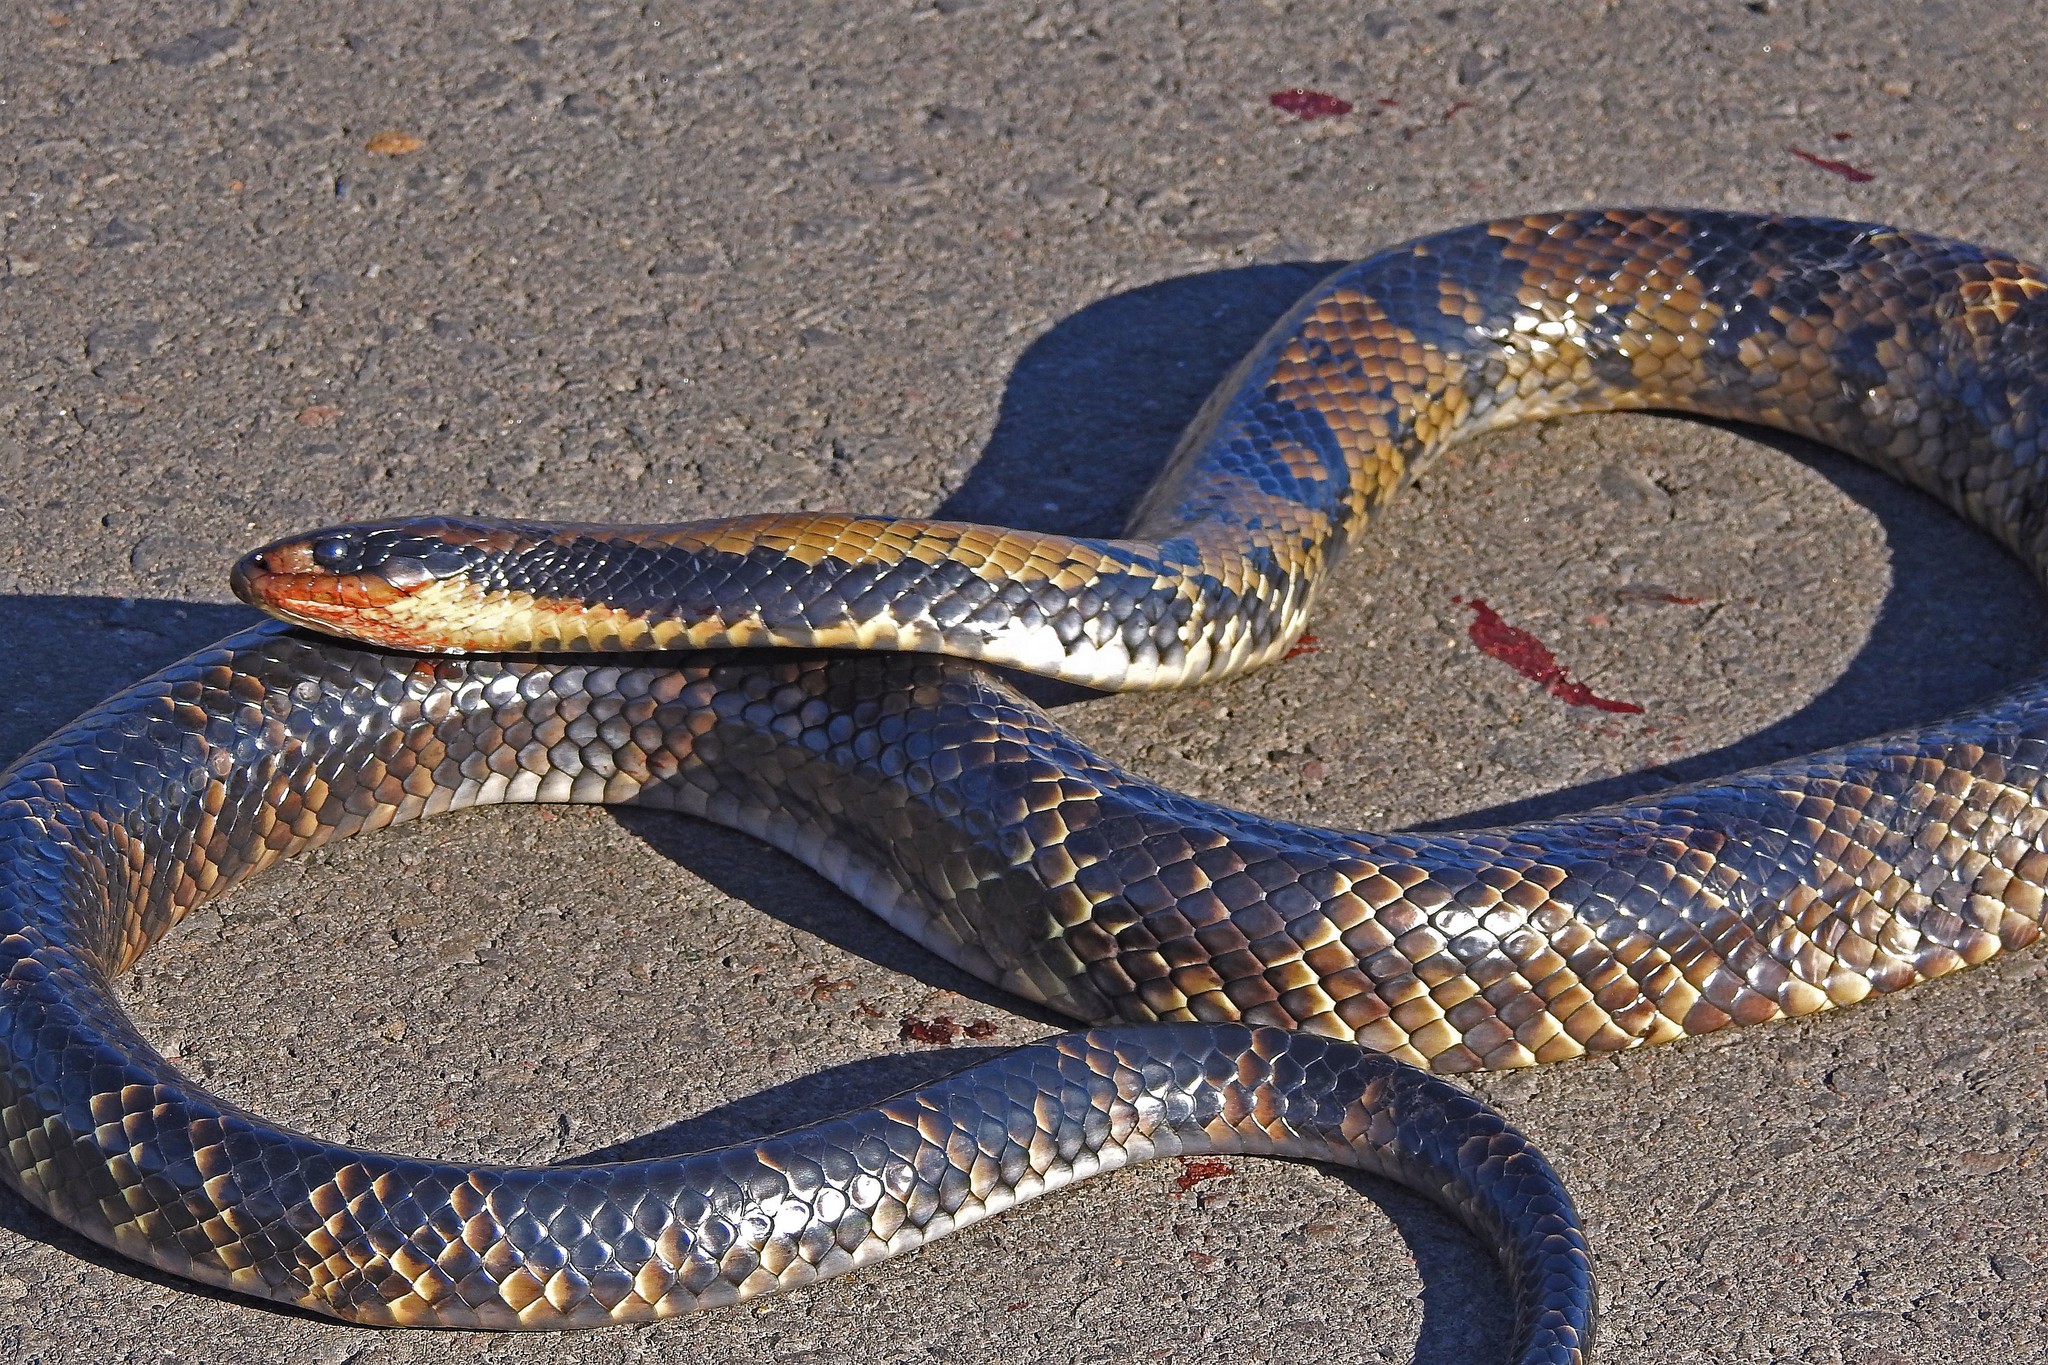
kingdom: Animalia
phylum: Chordata
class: Squamata
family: Colubridae
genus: Hydrodynastes
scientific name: Hydrodynastes gigas
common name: False water cobra
